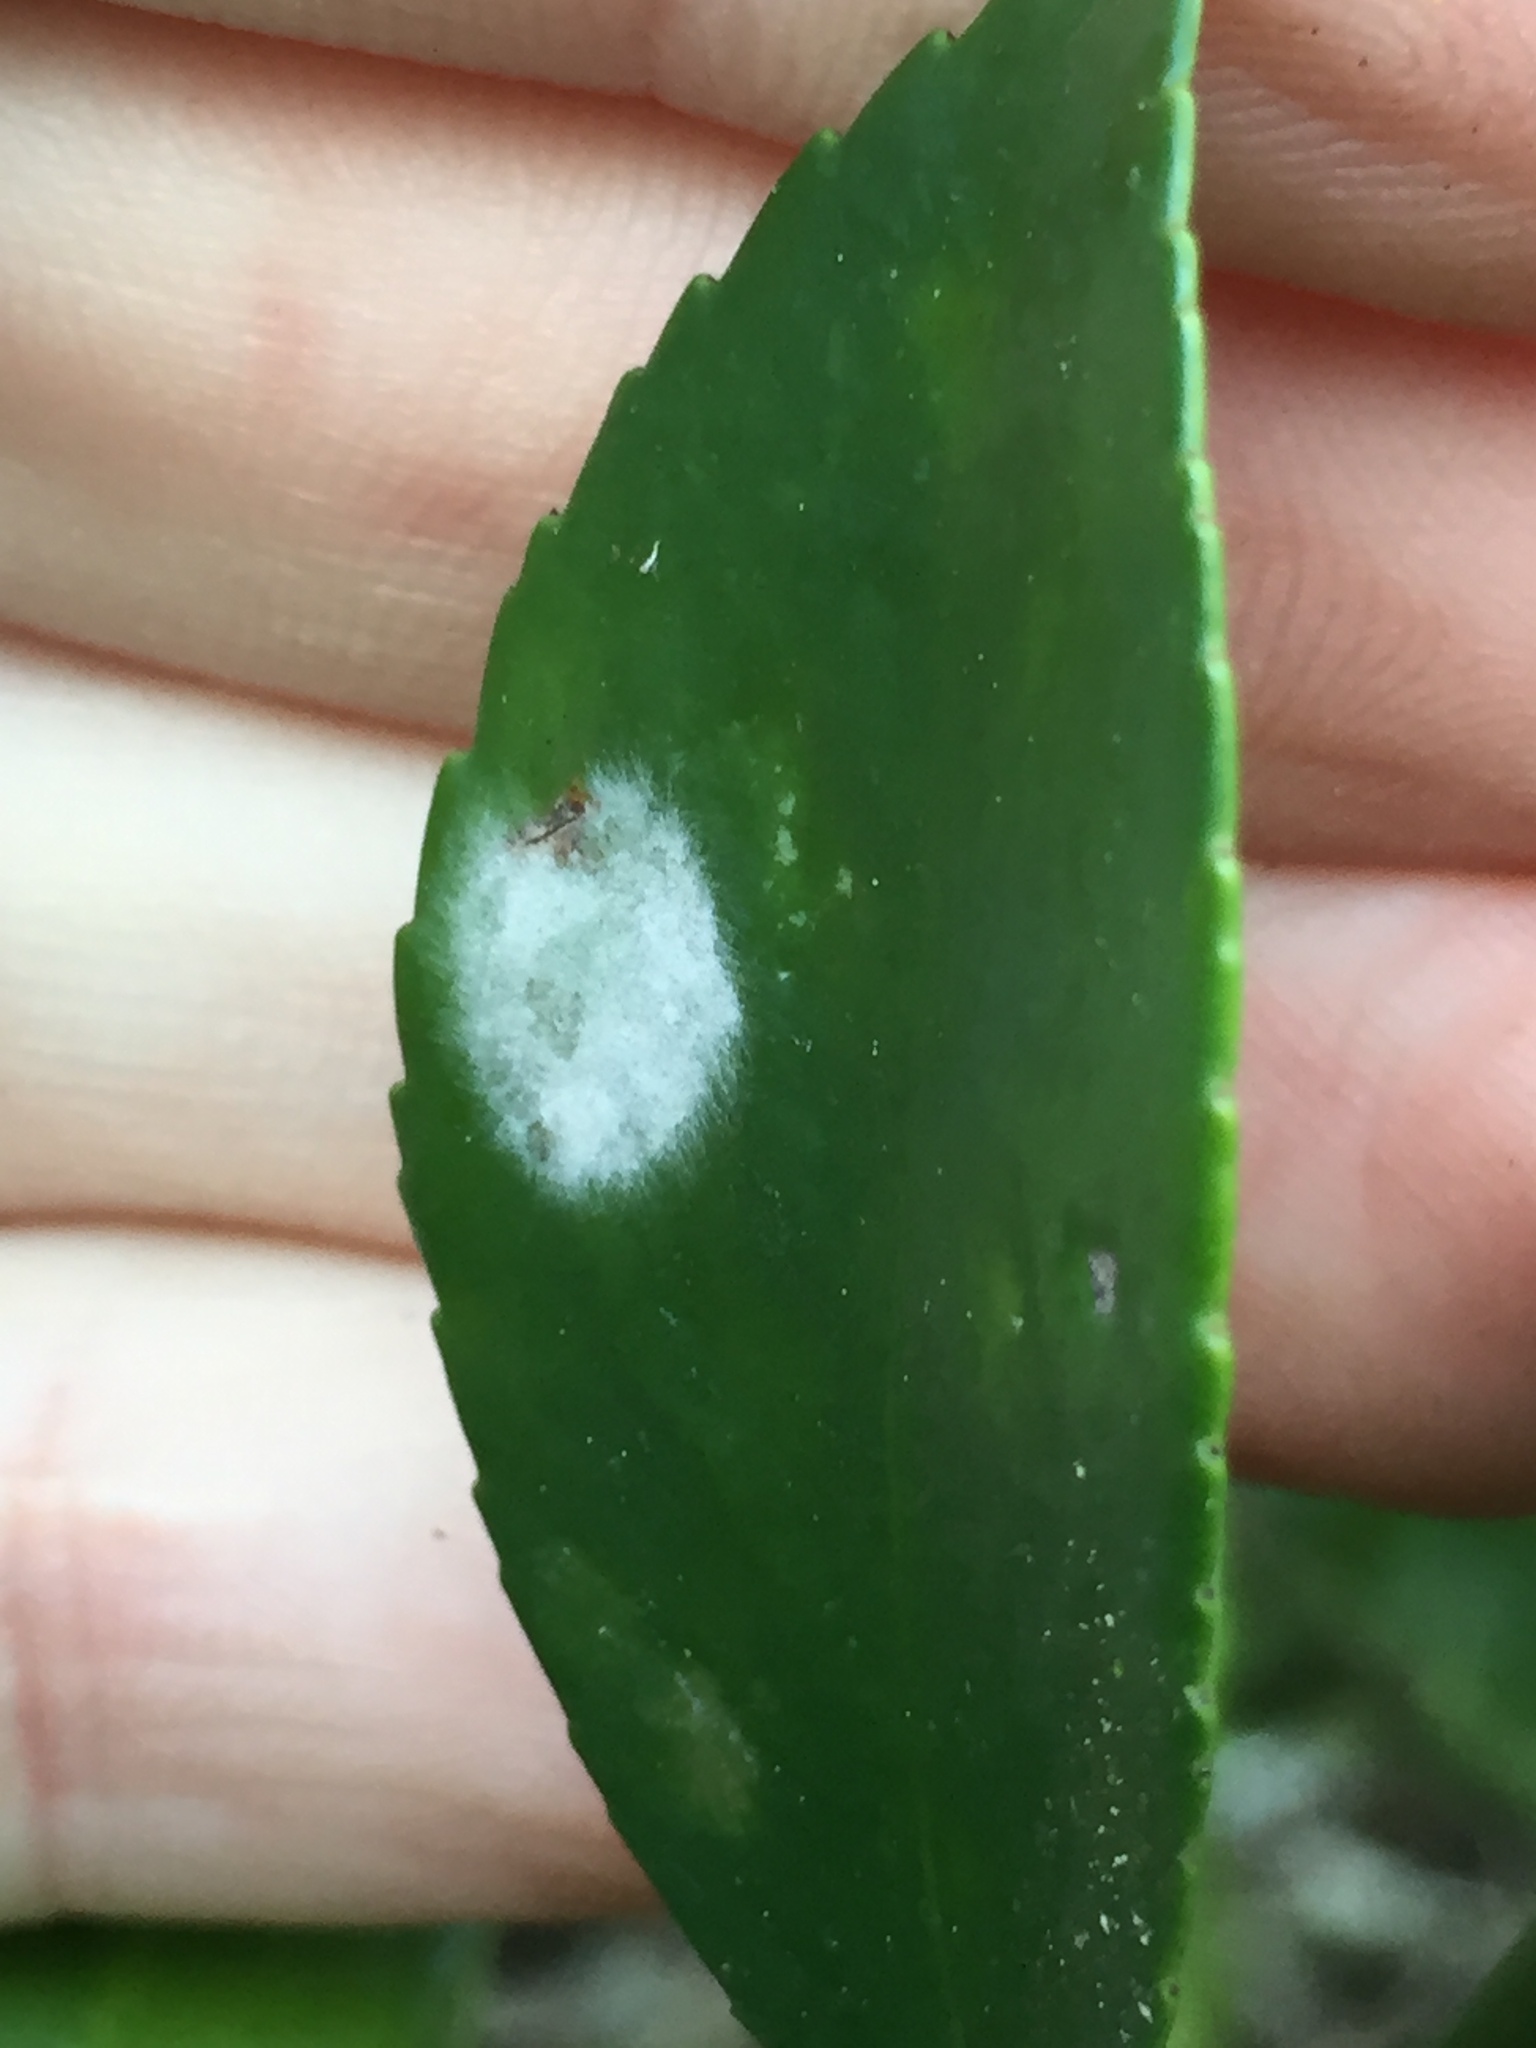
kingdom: Fungi
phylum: Ascomycota
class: Leotiomycetes
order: Helotiales
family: Erysiphaceae
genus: Erysiphe
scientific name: Erysiphe euonymicola
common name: Spindletree mildew
